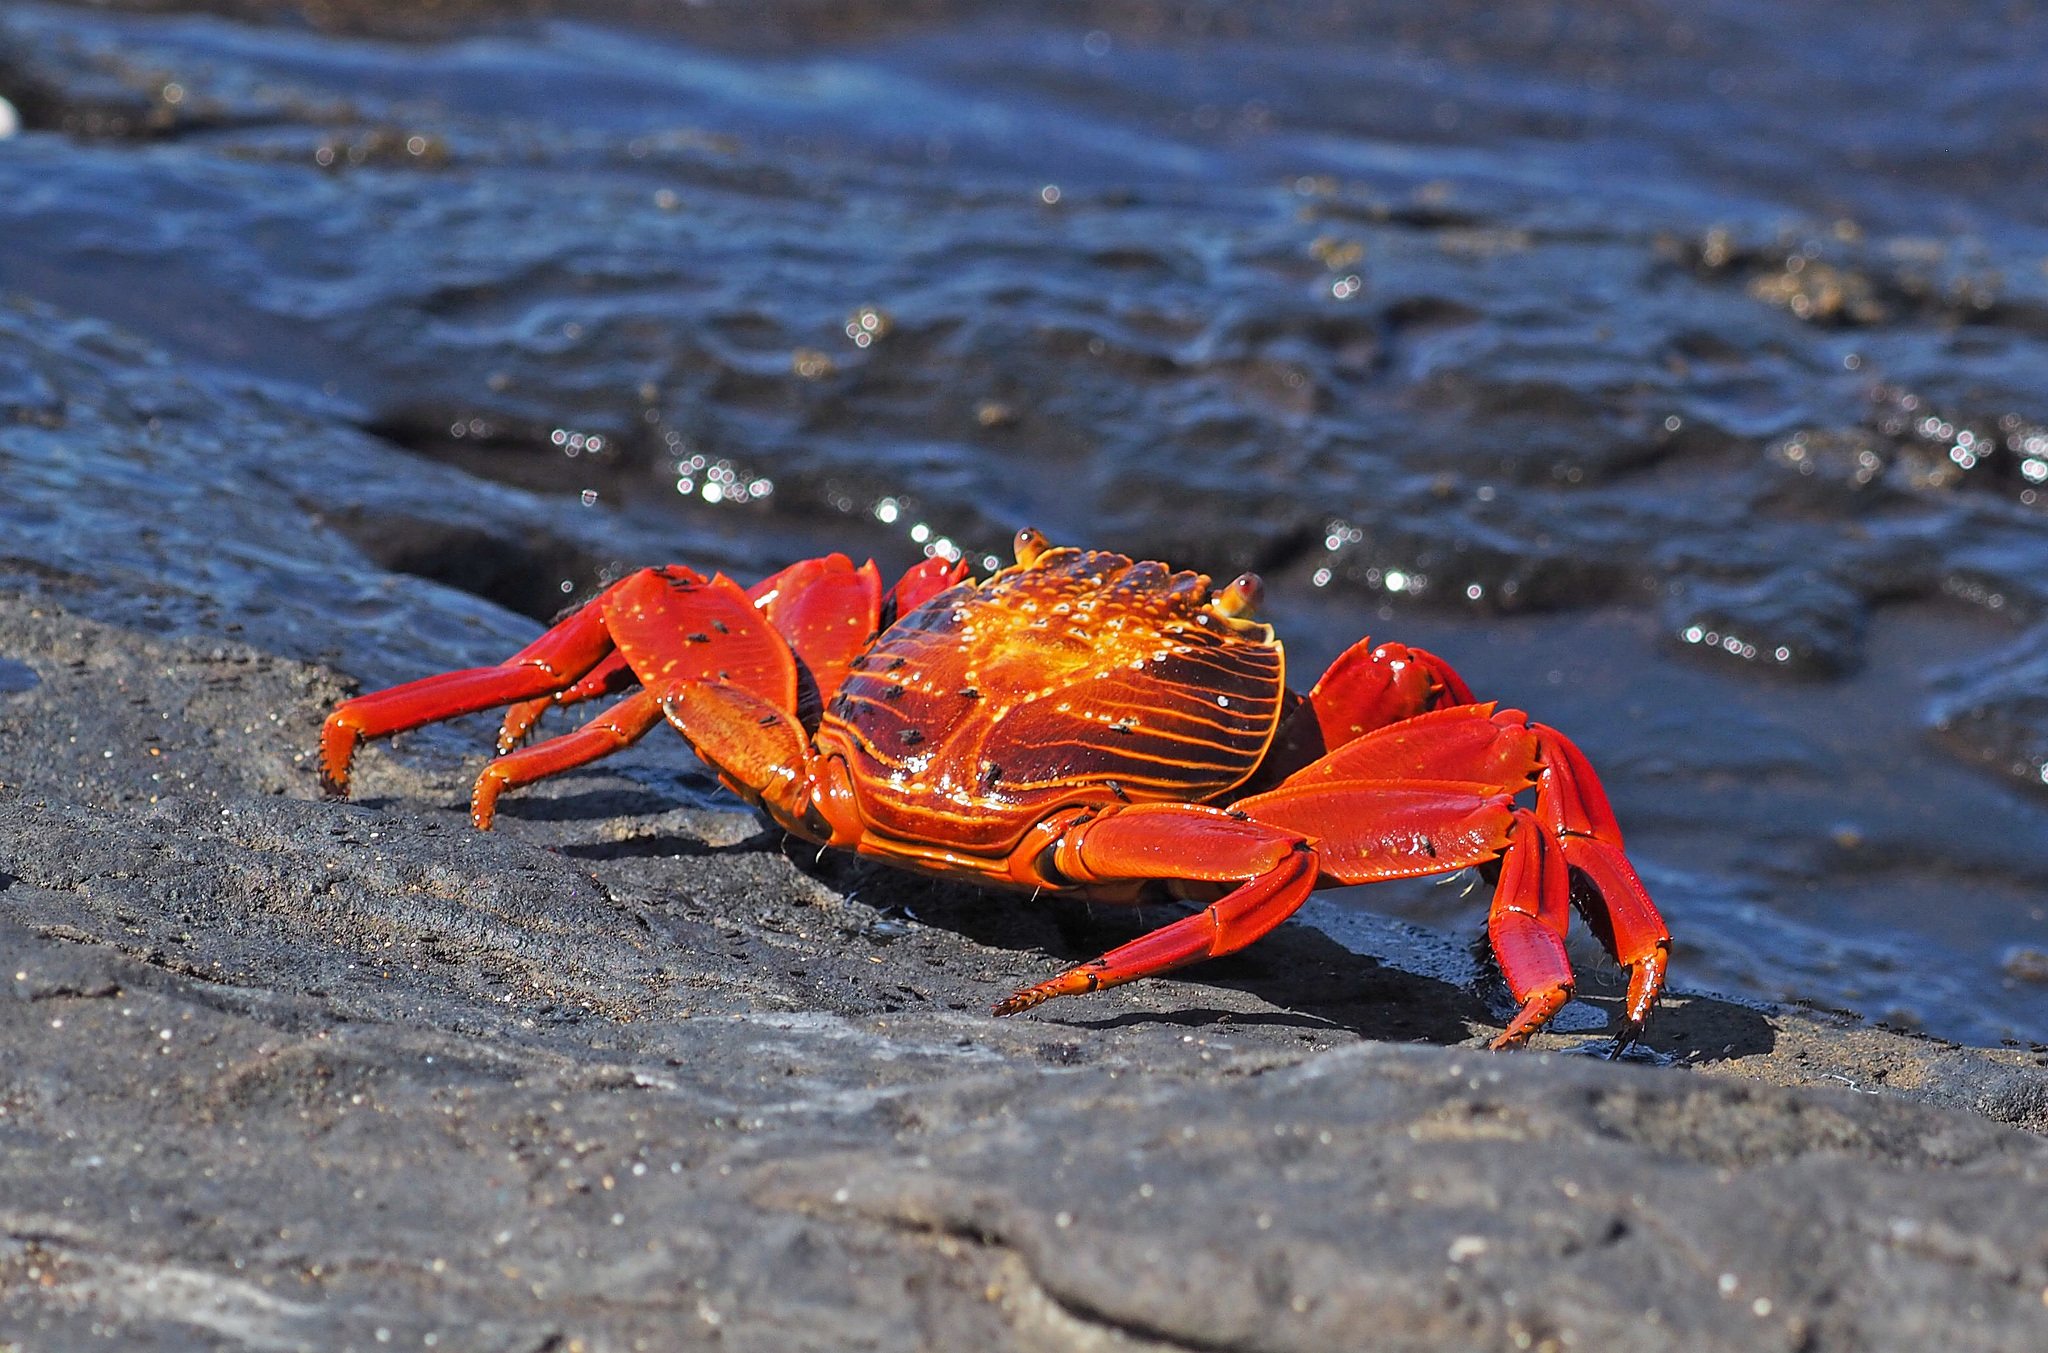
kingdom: Animalia
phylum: Arthropoda
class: Malacostraca
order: Decapoda
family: Grapsidae
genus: Grapsus
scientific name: Grapsus grapsus
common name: Sally lightfoot
